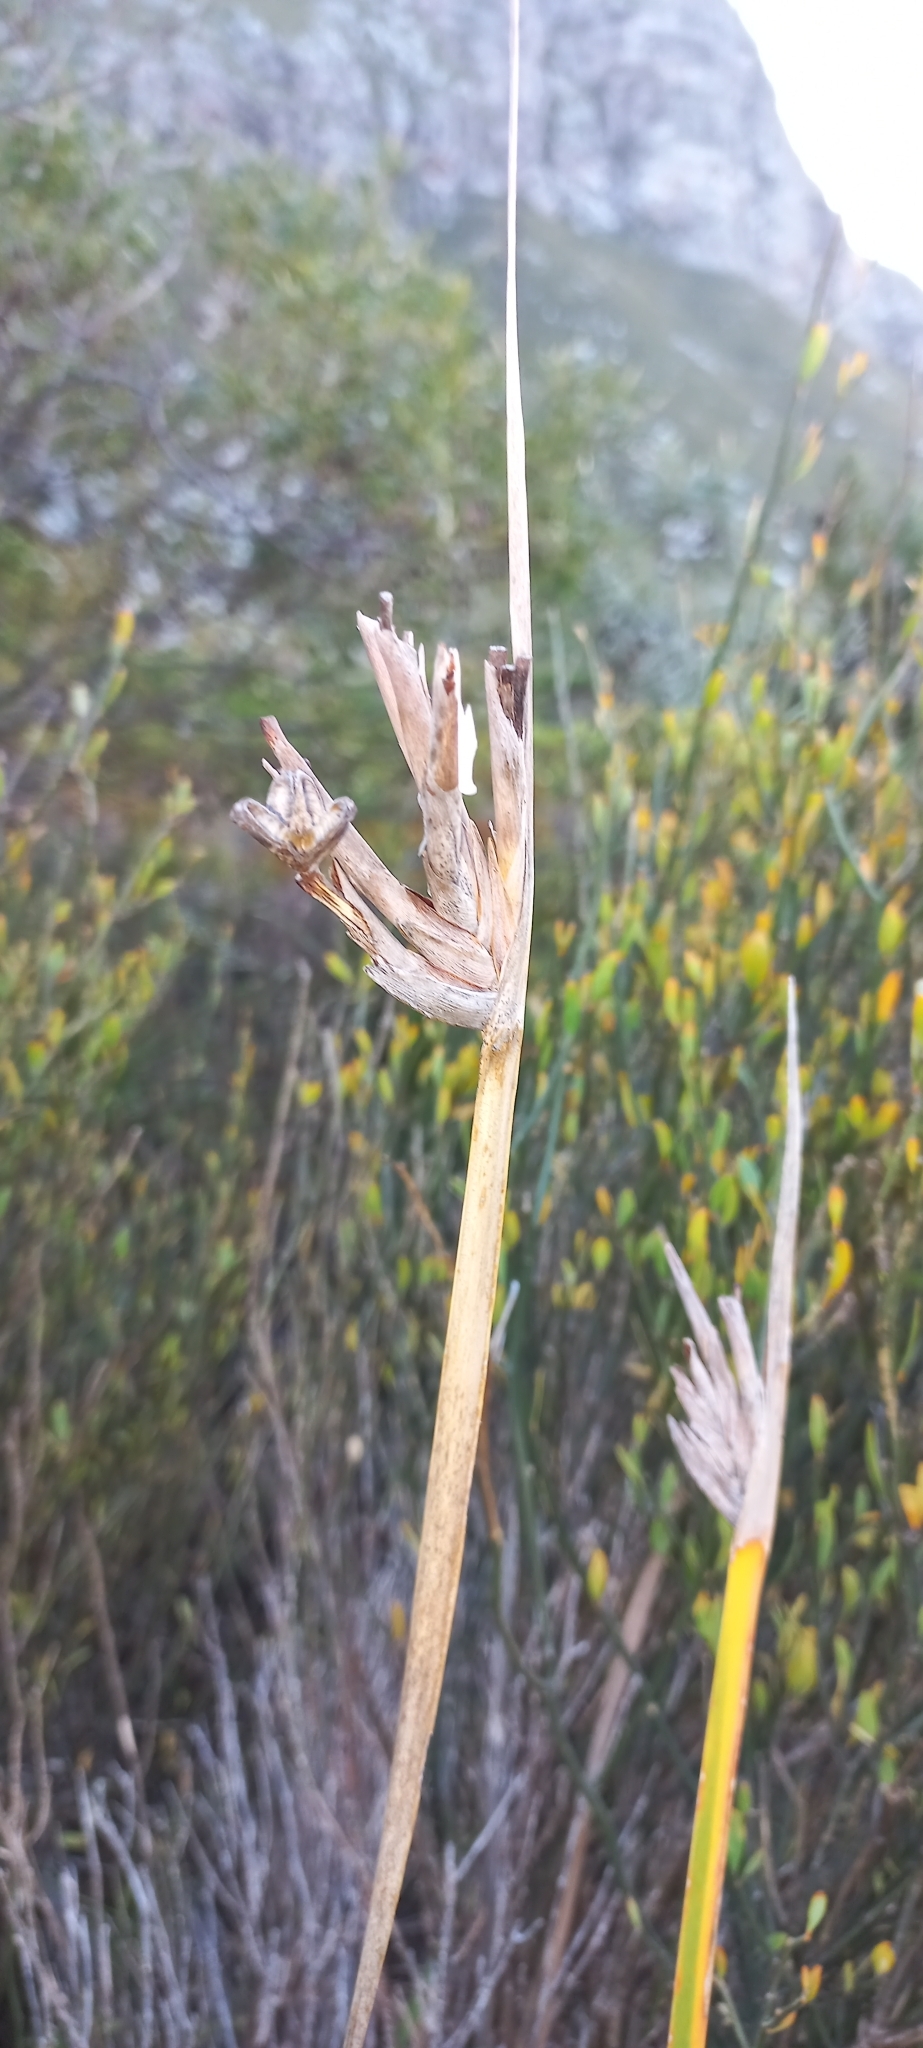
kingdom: Plantae
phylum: Tracheophyta
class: Liliopsida
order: Asparagales
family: Iridaceae
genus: Bobartia
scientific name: Bobartia gladiata
